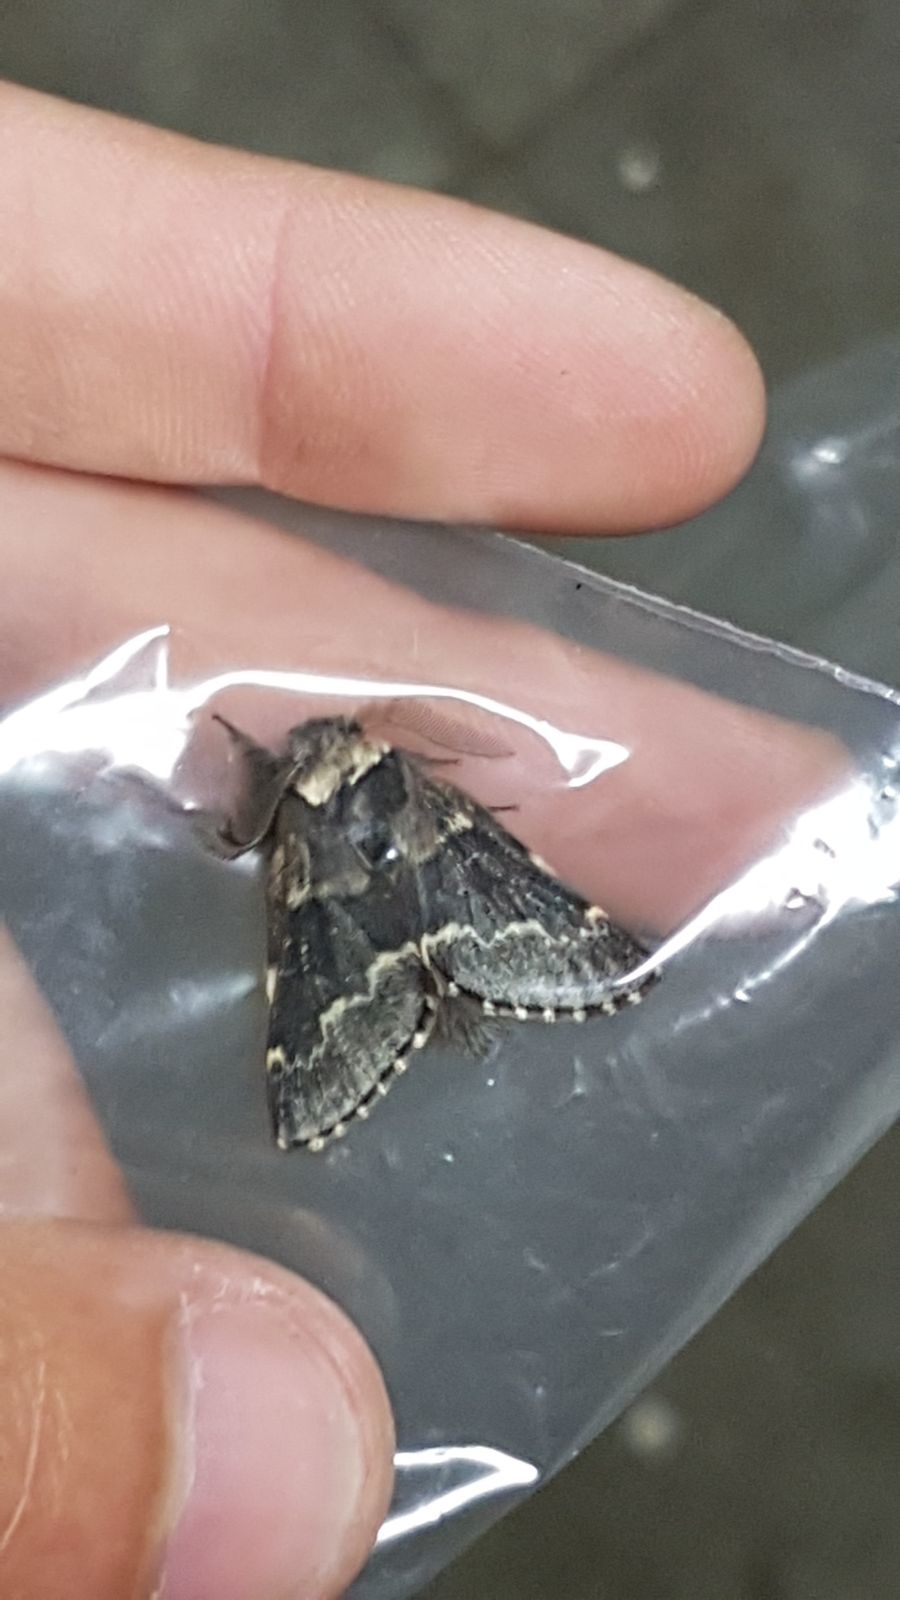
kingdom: Animalia
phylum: Arthropoda
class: Insecta
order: Lepidoptera
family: Lasiocampidae
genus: Poecilocampa
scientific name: Poecilocampa populi
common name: December moth
